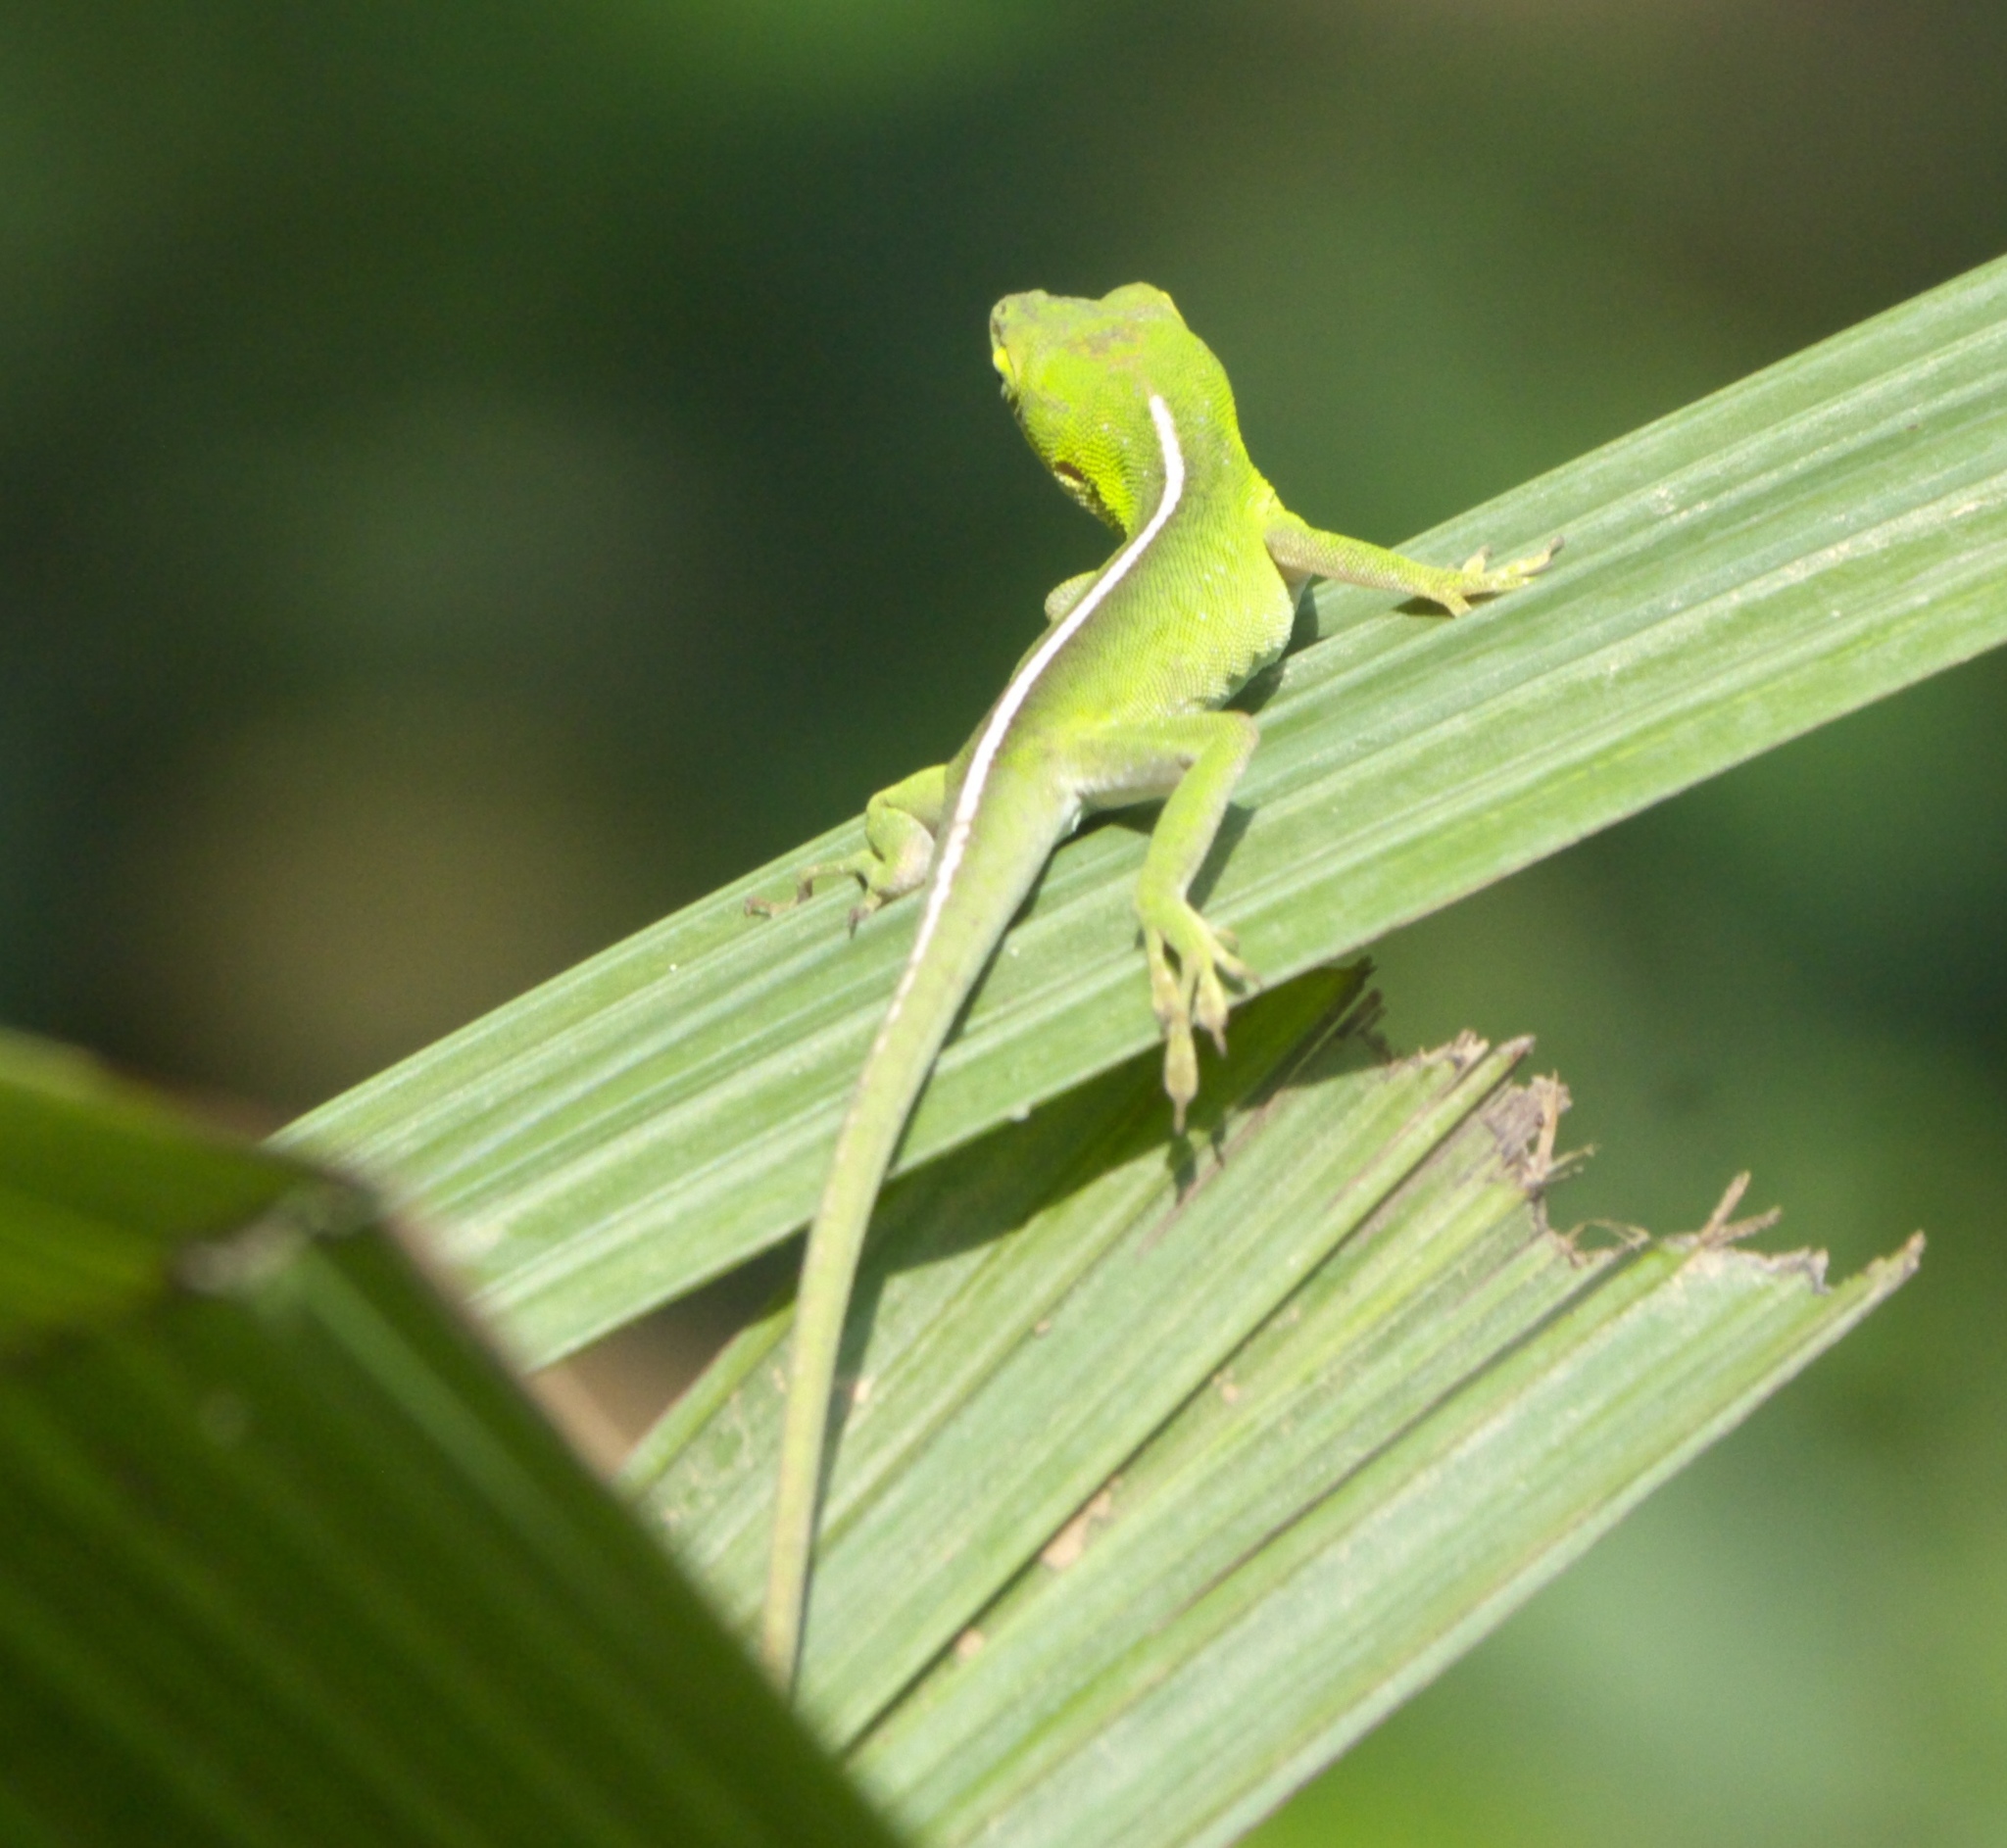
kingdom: Animalia
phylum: Chordata
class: Squamata
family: Dactyloidae
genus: Anolis
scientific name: Anolis porcatus
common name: Cuban green anole
